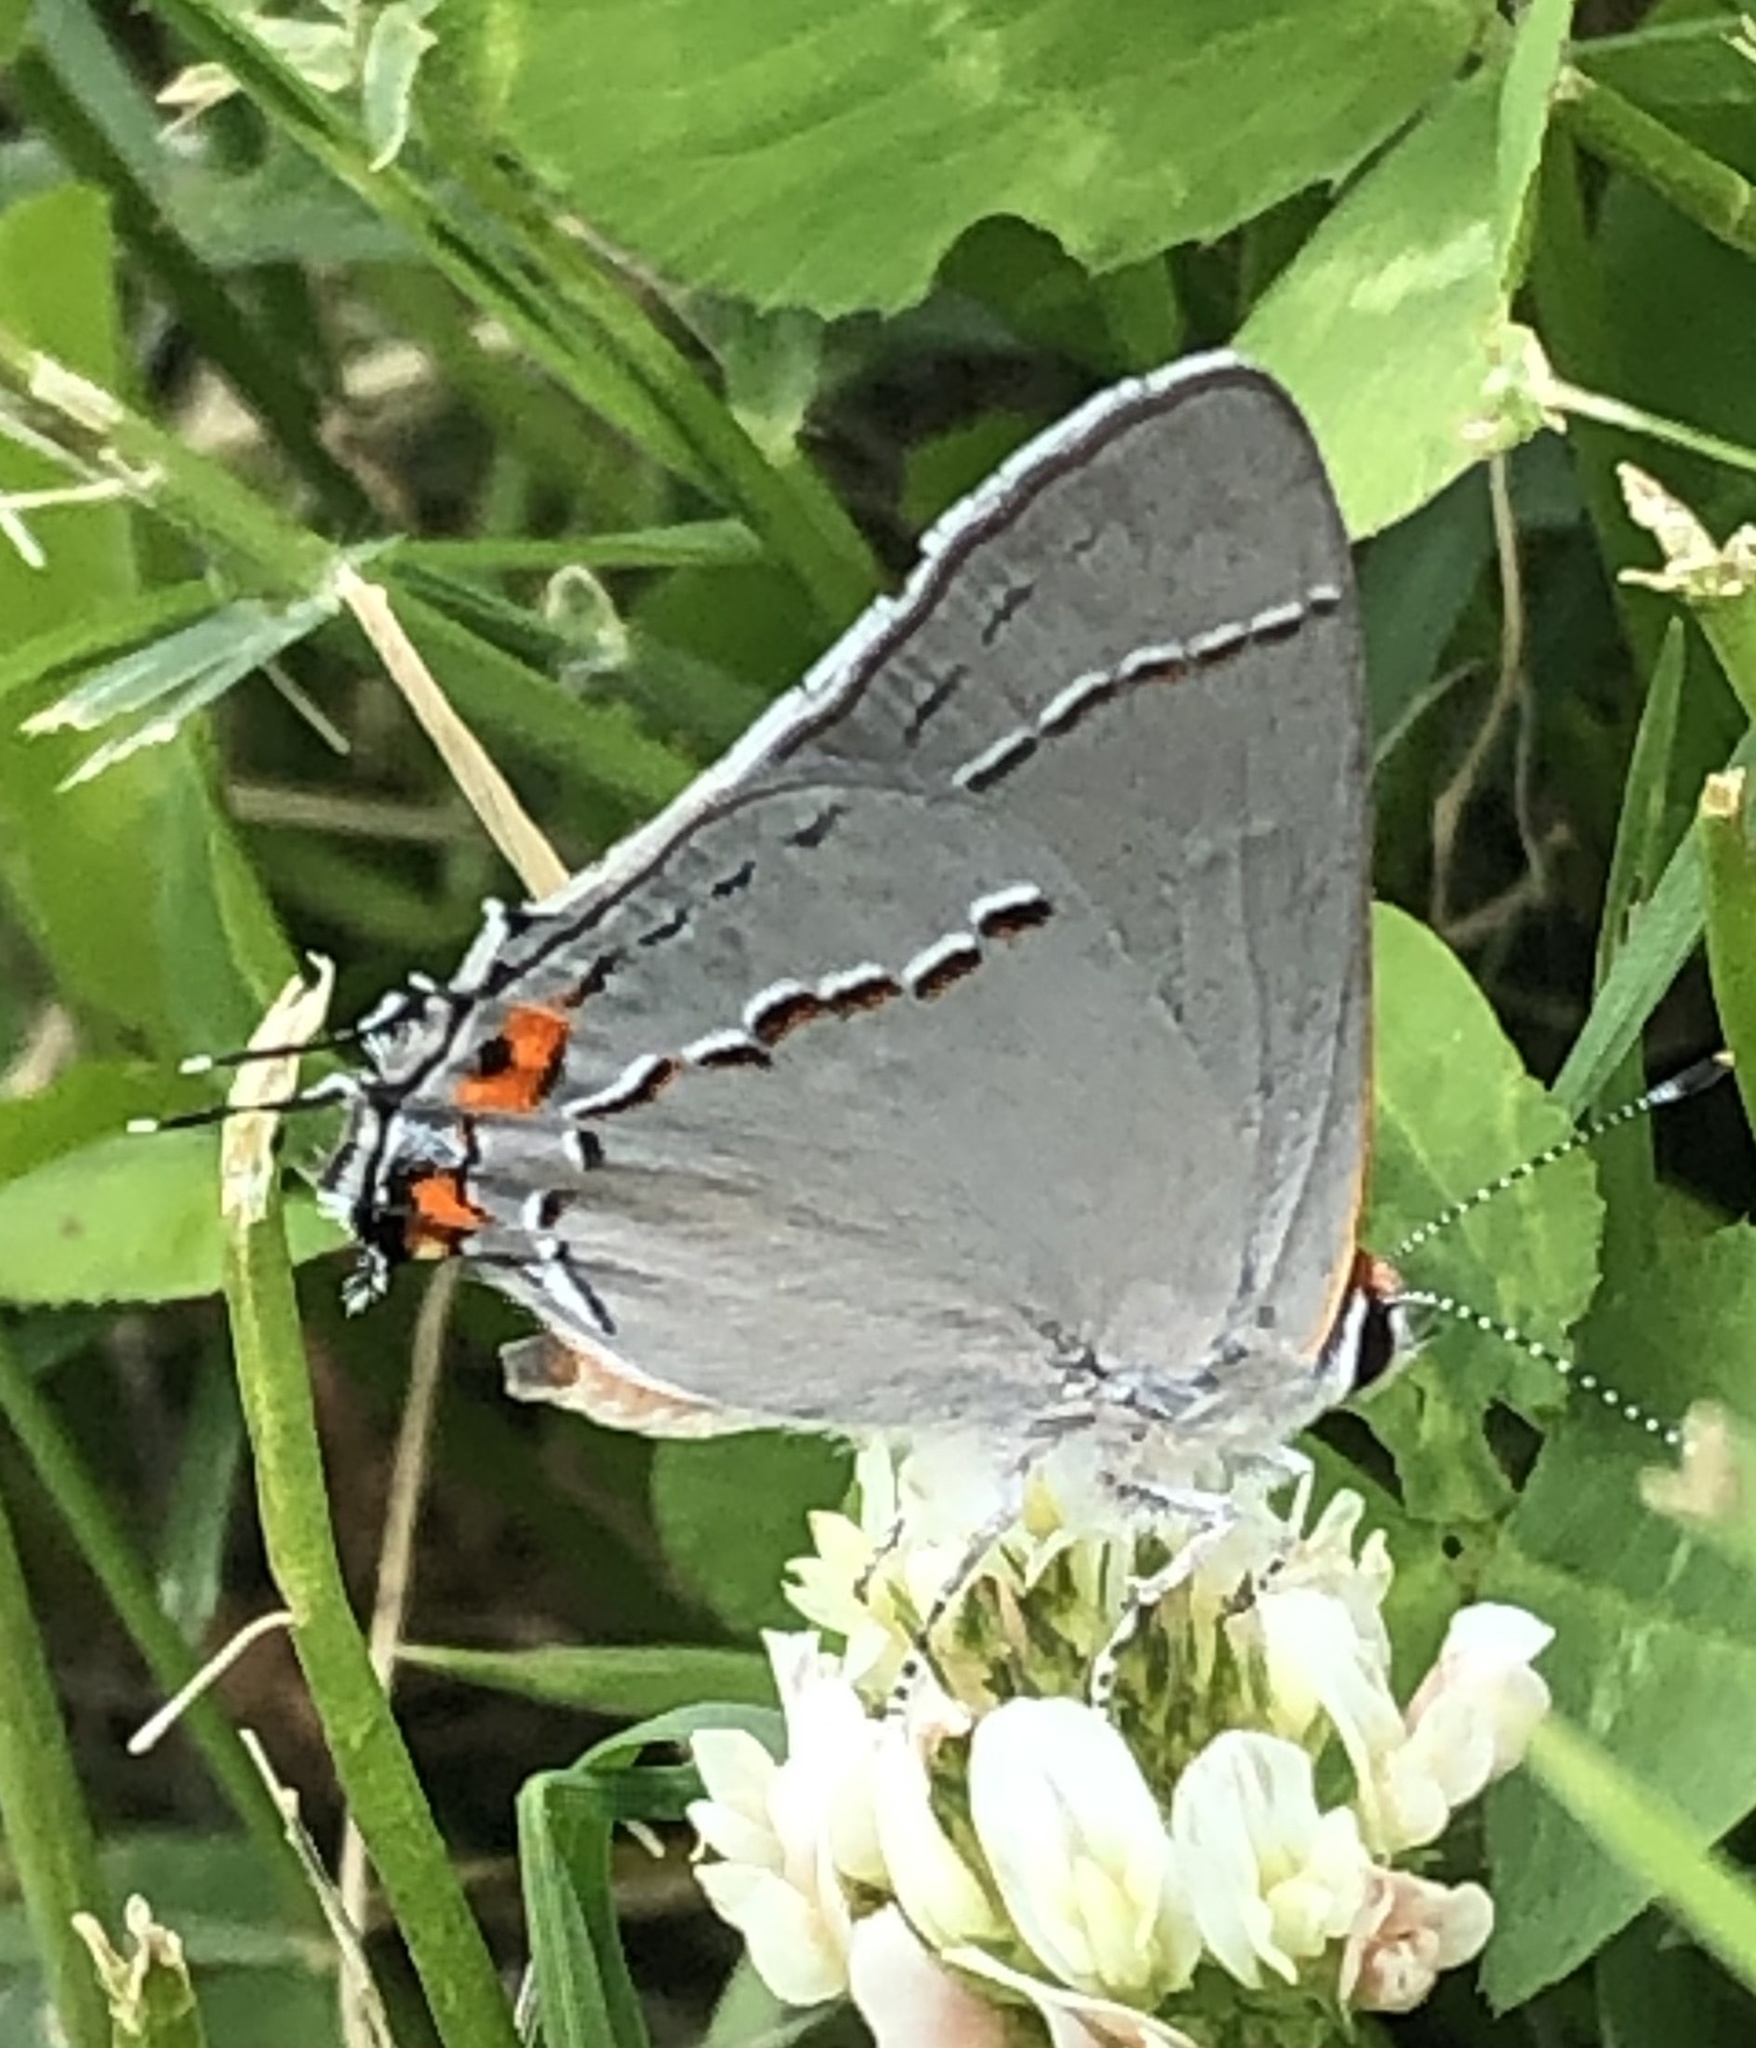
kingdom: Animalia
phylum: Arthropoda
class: Insecta
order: Lepidoptera
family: Lycaenidae
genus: Strymon
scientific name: Strymon melinus
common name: Gray hairstreak
